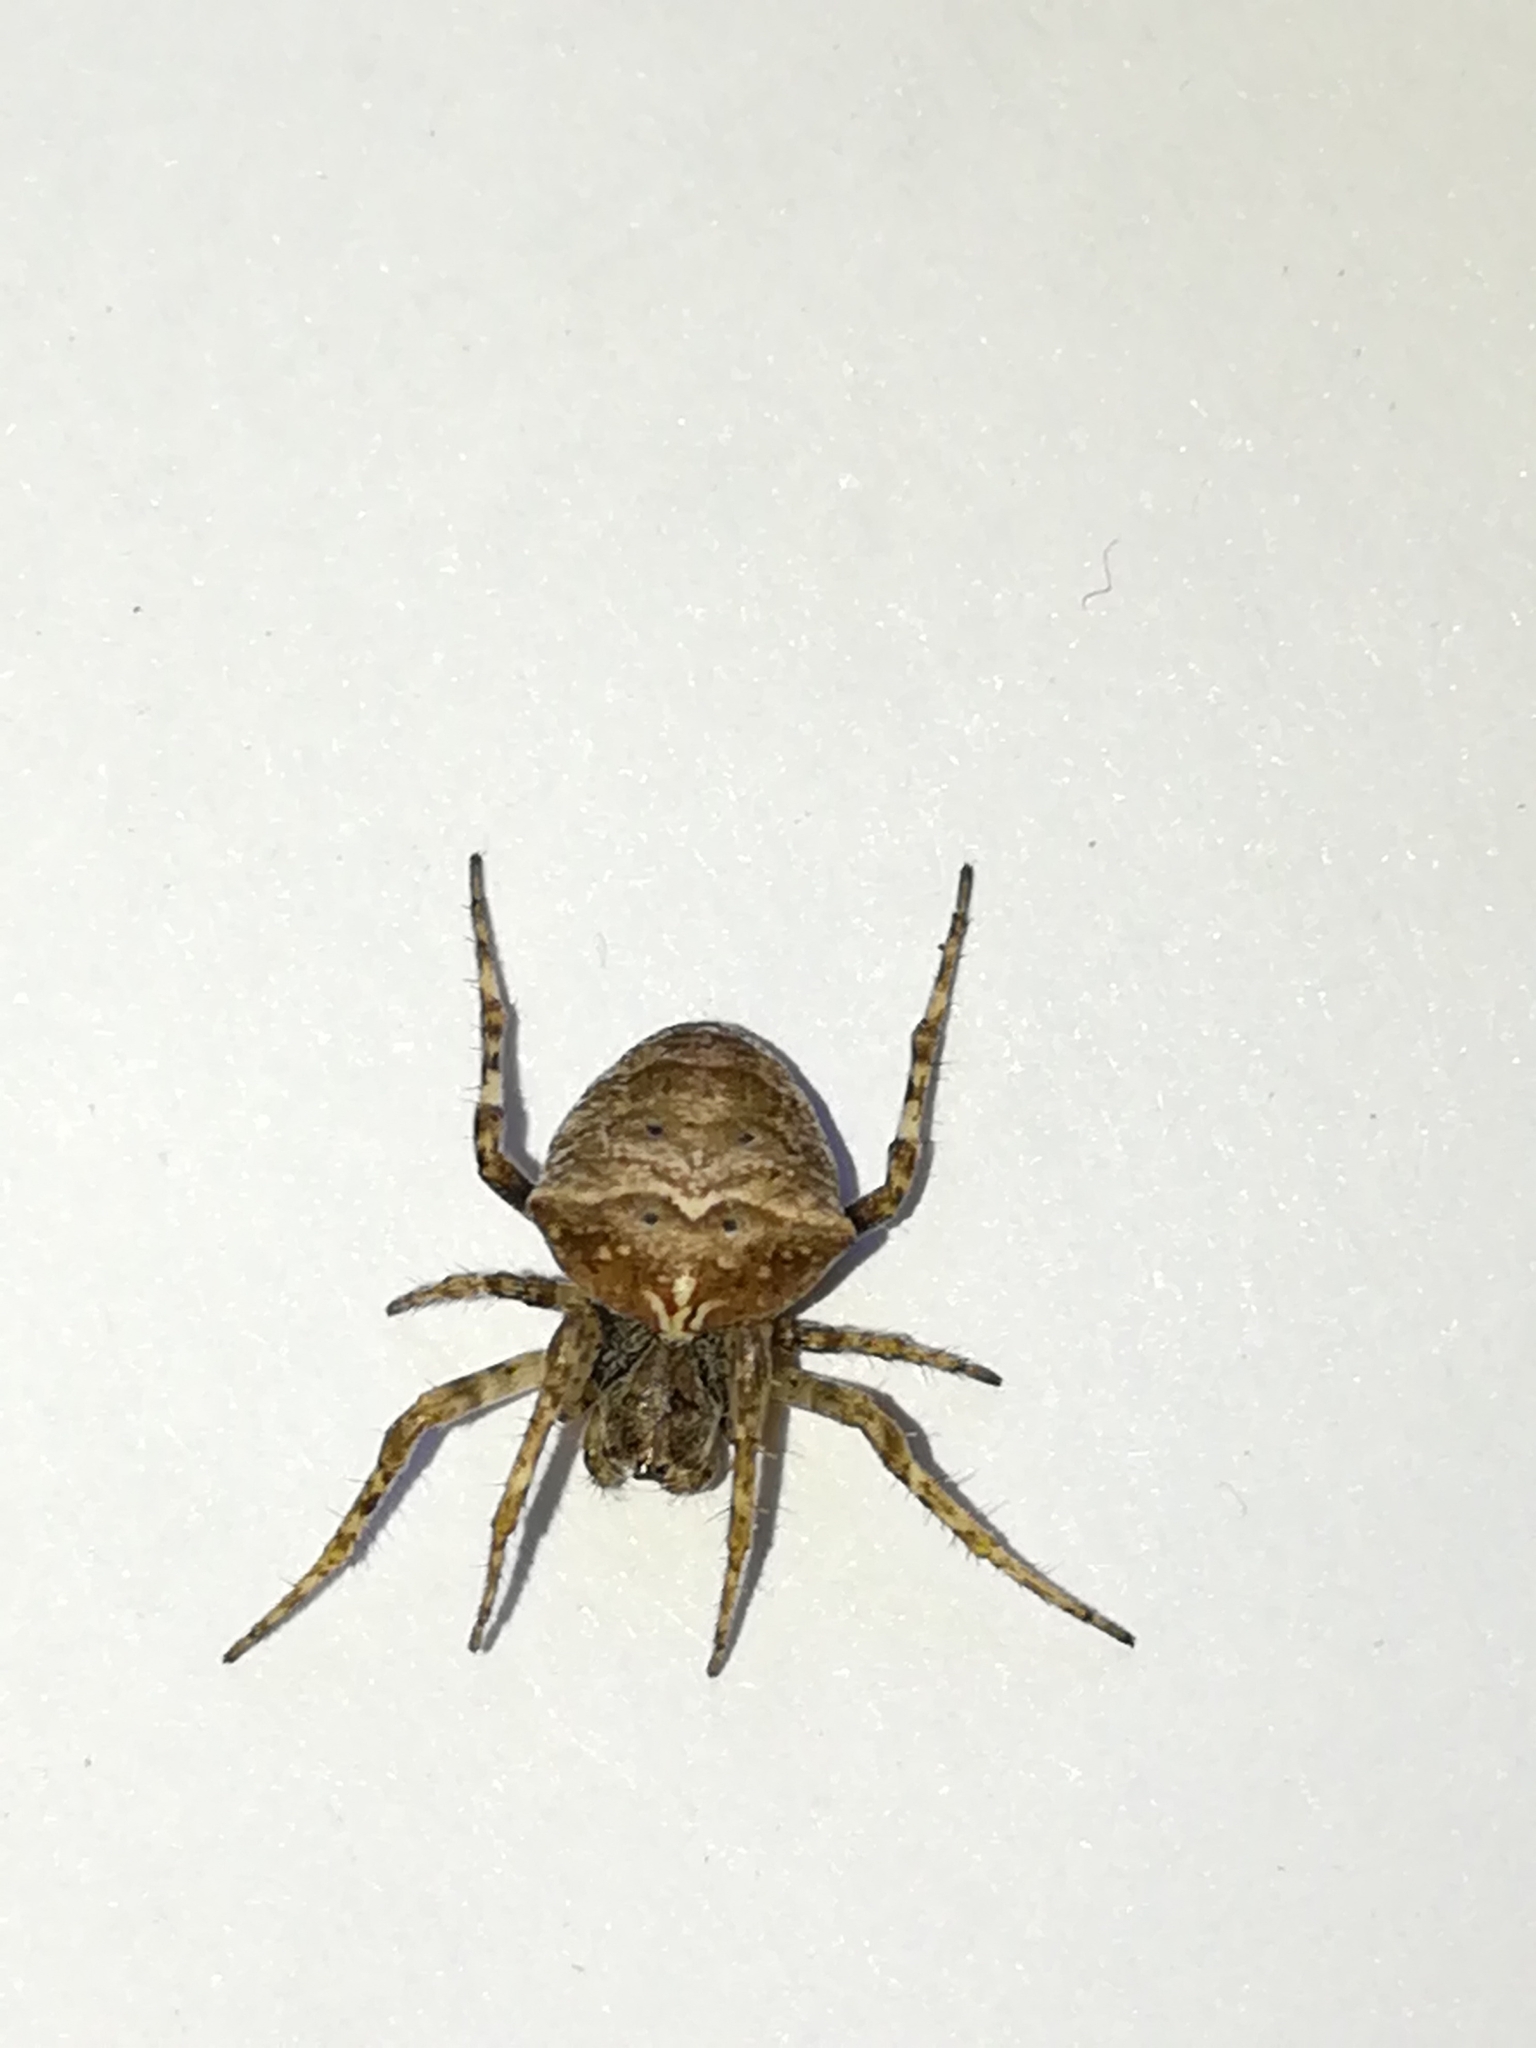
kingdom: Animalia
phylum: Arthropoda
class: Arachnida
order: Araneae
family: Araneidae
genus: Gibbaranea
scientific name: Gibbaranea bituberculata
